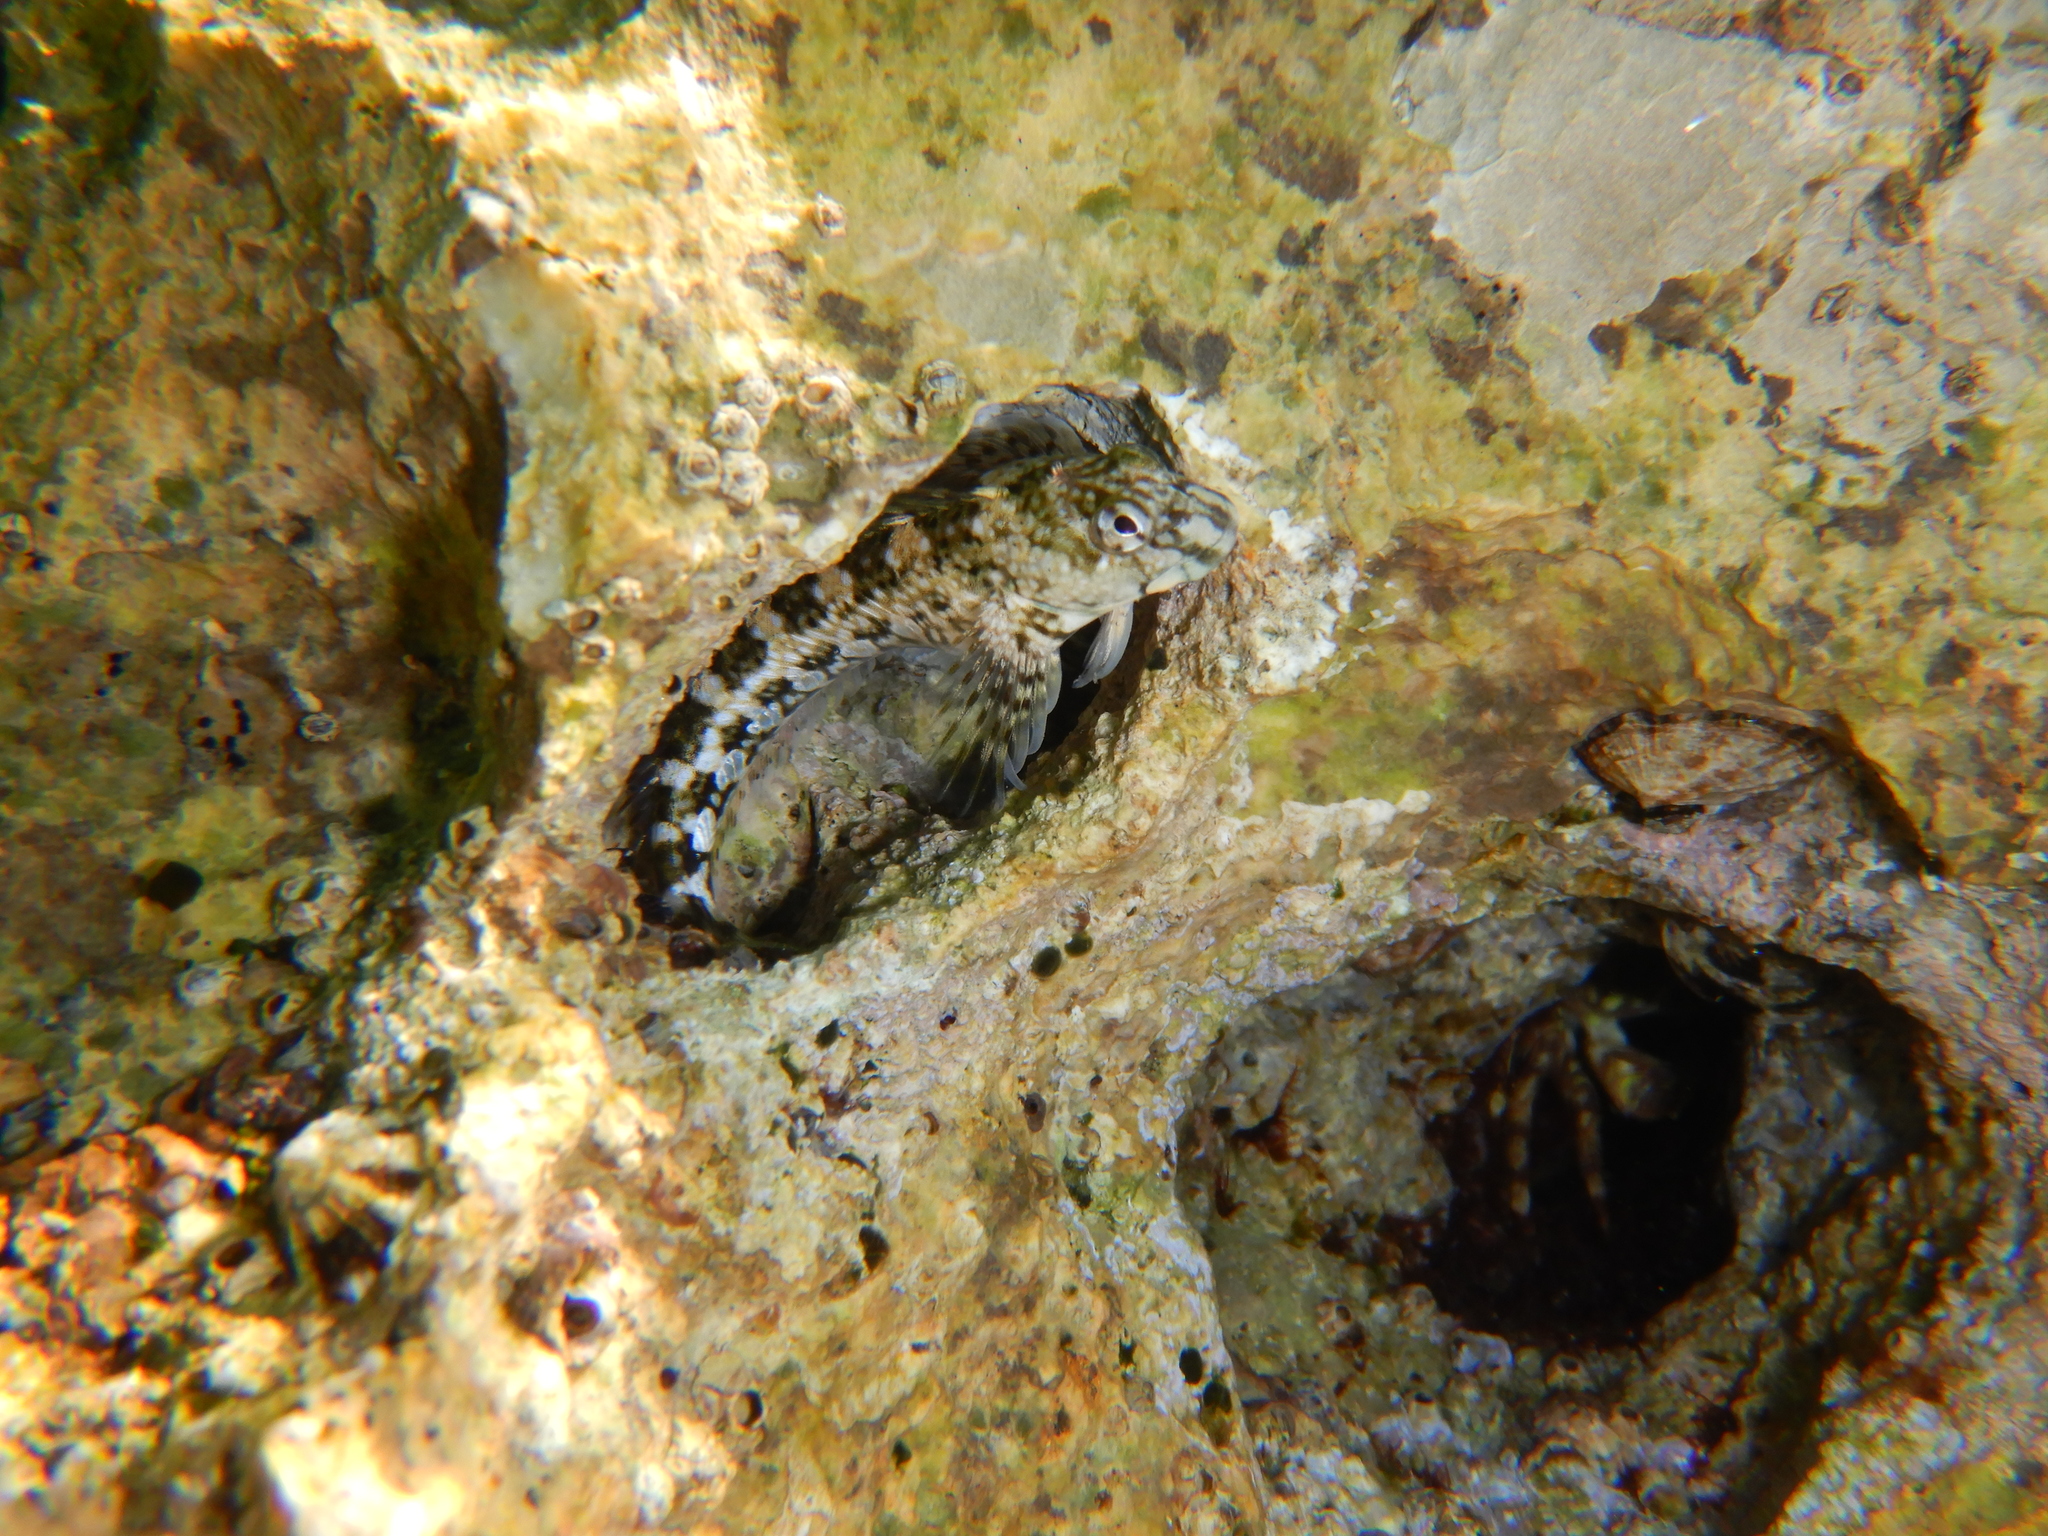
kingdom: Animalia
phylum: Chordata
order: Perciformes
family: Blenniidae
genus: Coryphoblennius
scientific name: Coryphoblennius galerita
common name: Montagu's blenny
